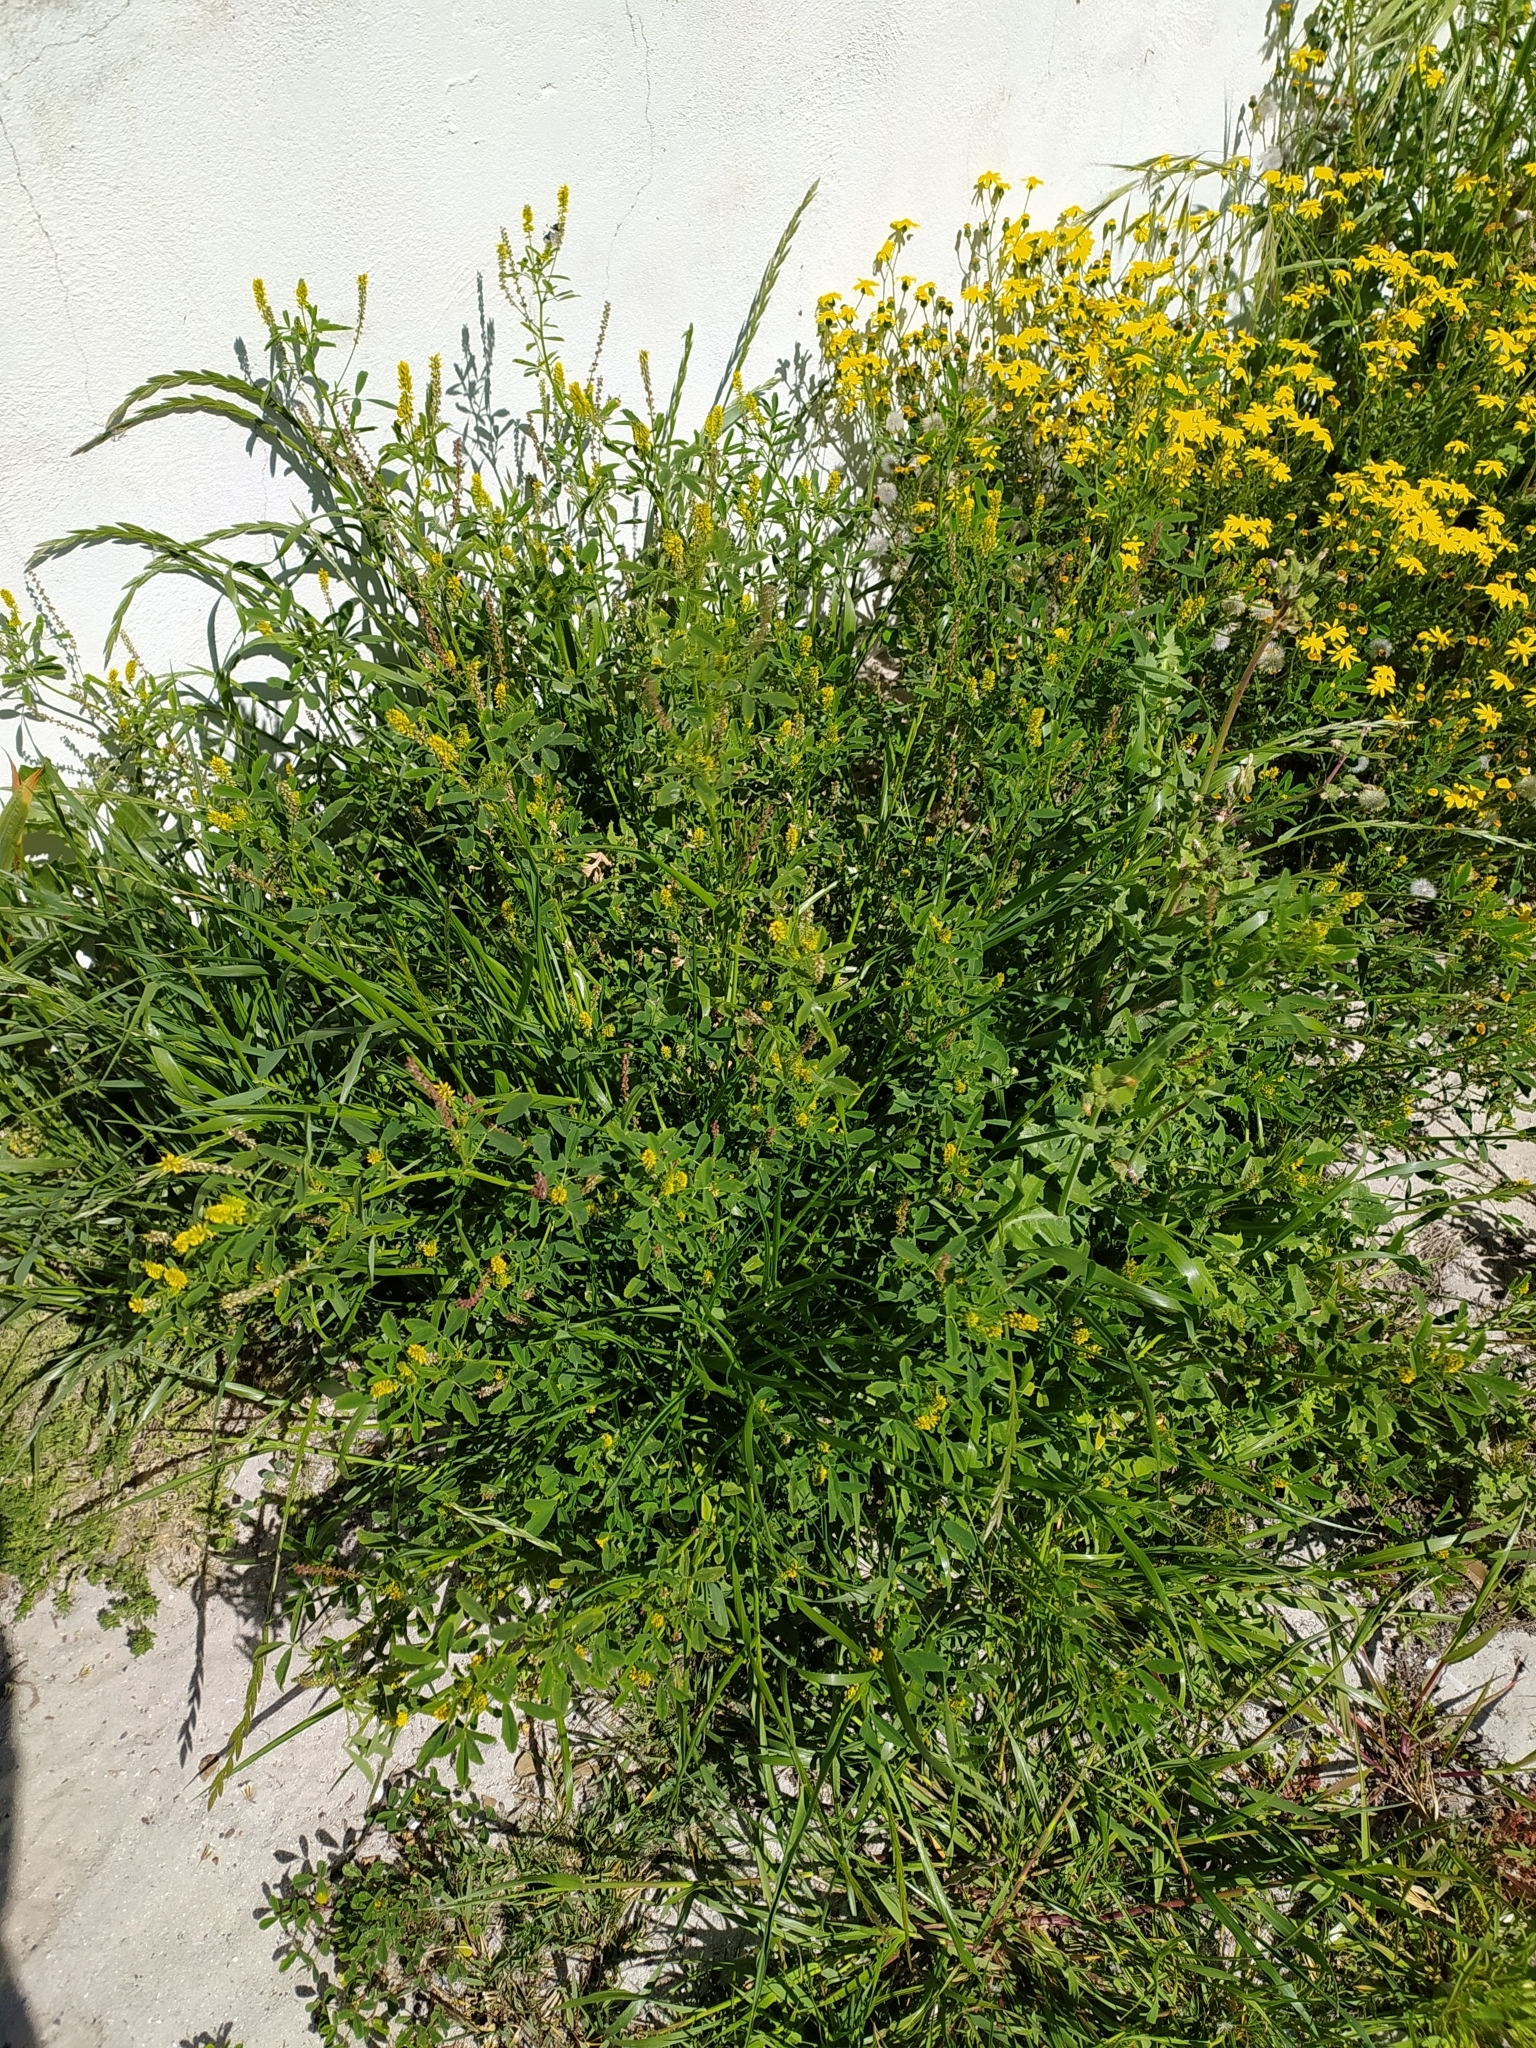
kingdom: Plantae
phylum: Tracheophyta
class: Magnoliopsida
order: Fabales
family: Fabaceae
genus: Melilotus
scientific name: Melilotus indicus
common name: Small melilot
